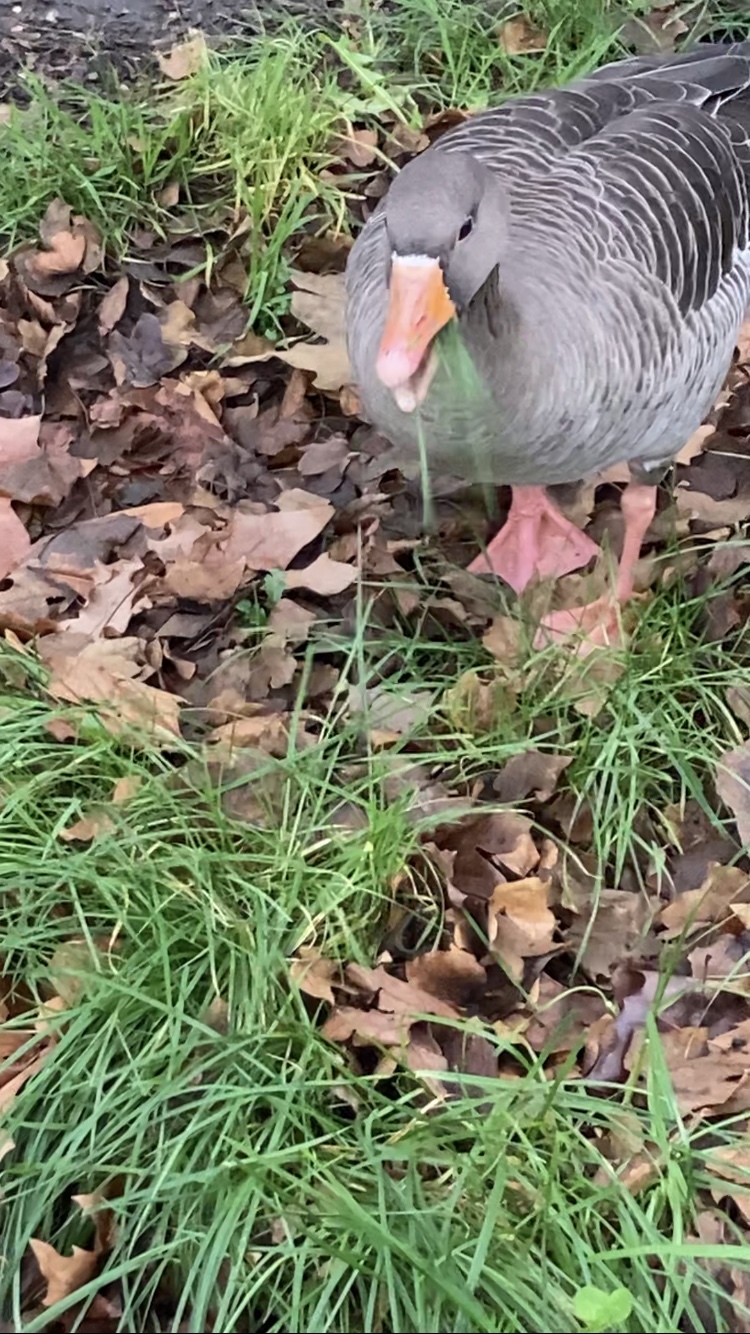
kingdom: Animalia
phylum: Chordata
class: Aves
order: Anseriformes
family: Anatidae
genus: Anser
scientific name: Anser anser
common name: Greylag goose
